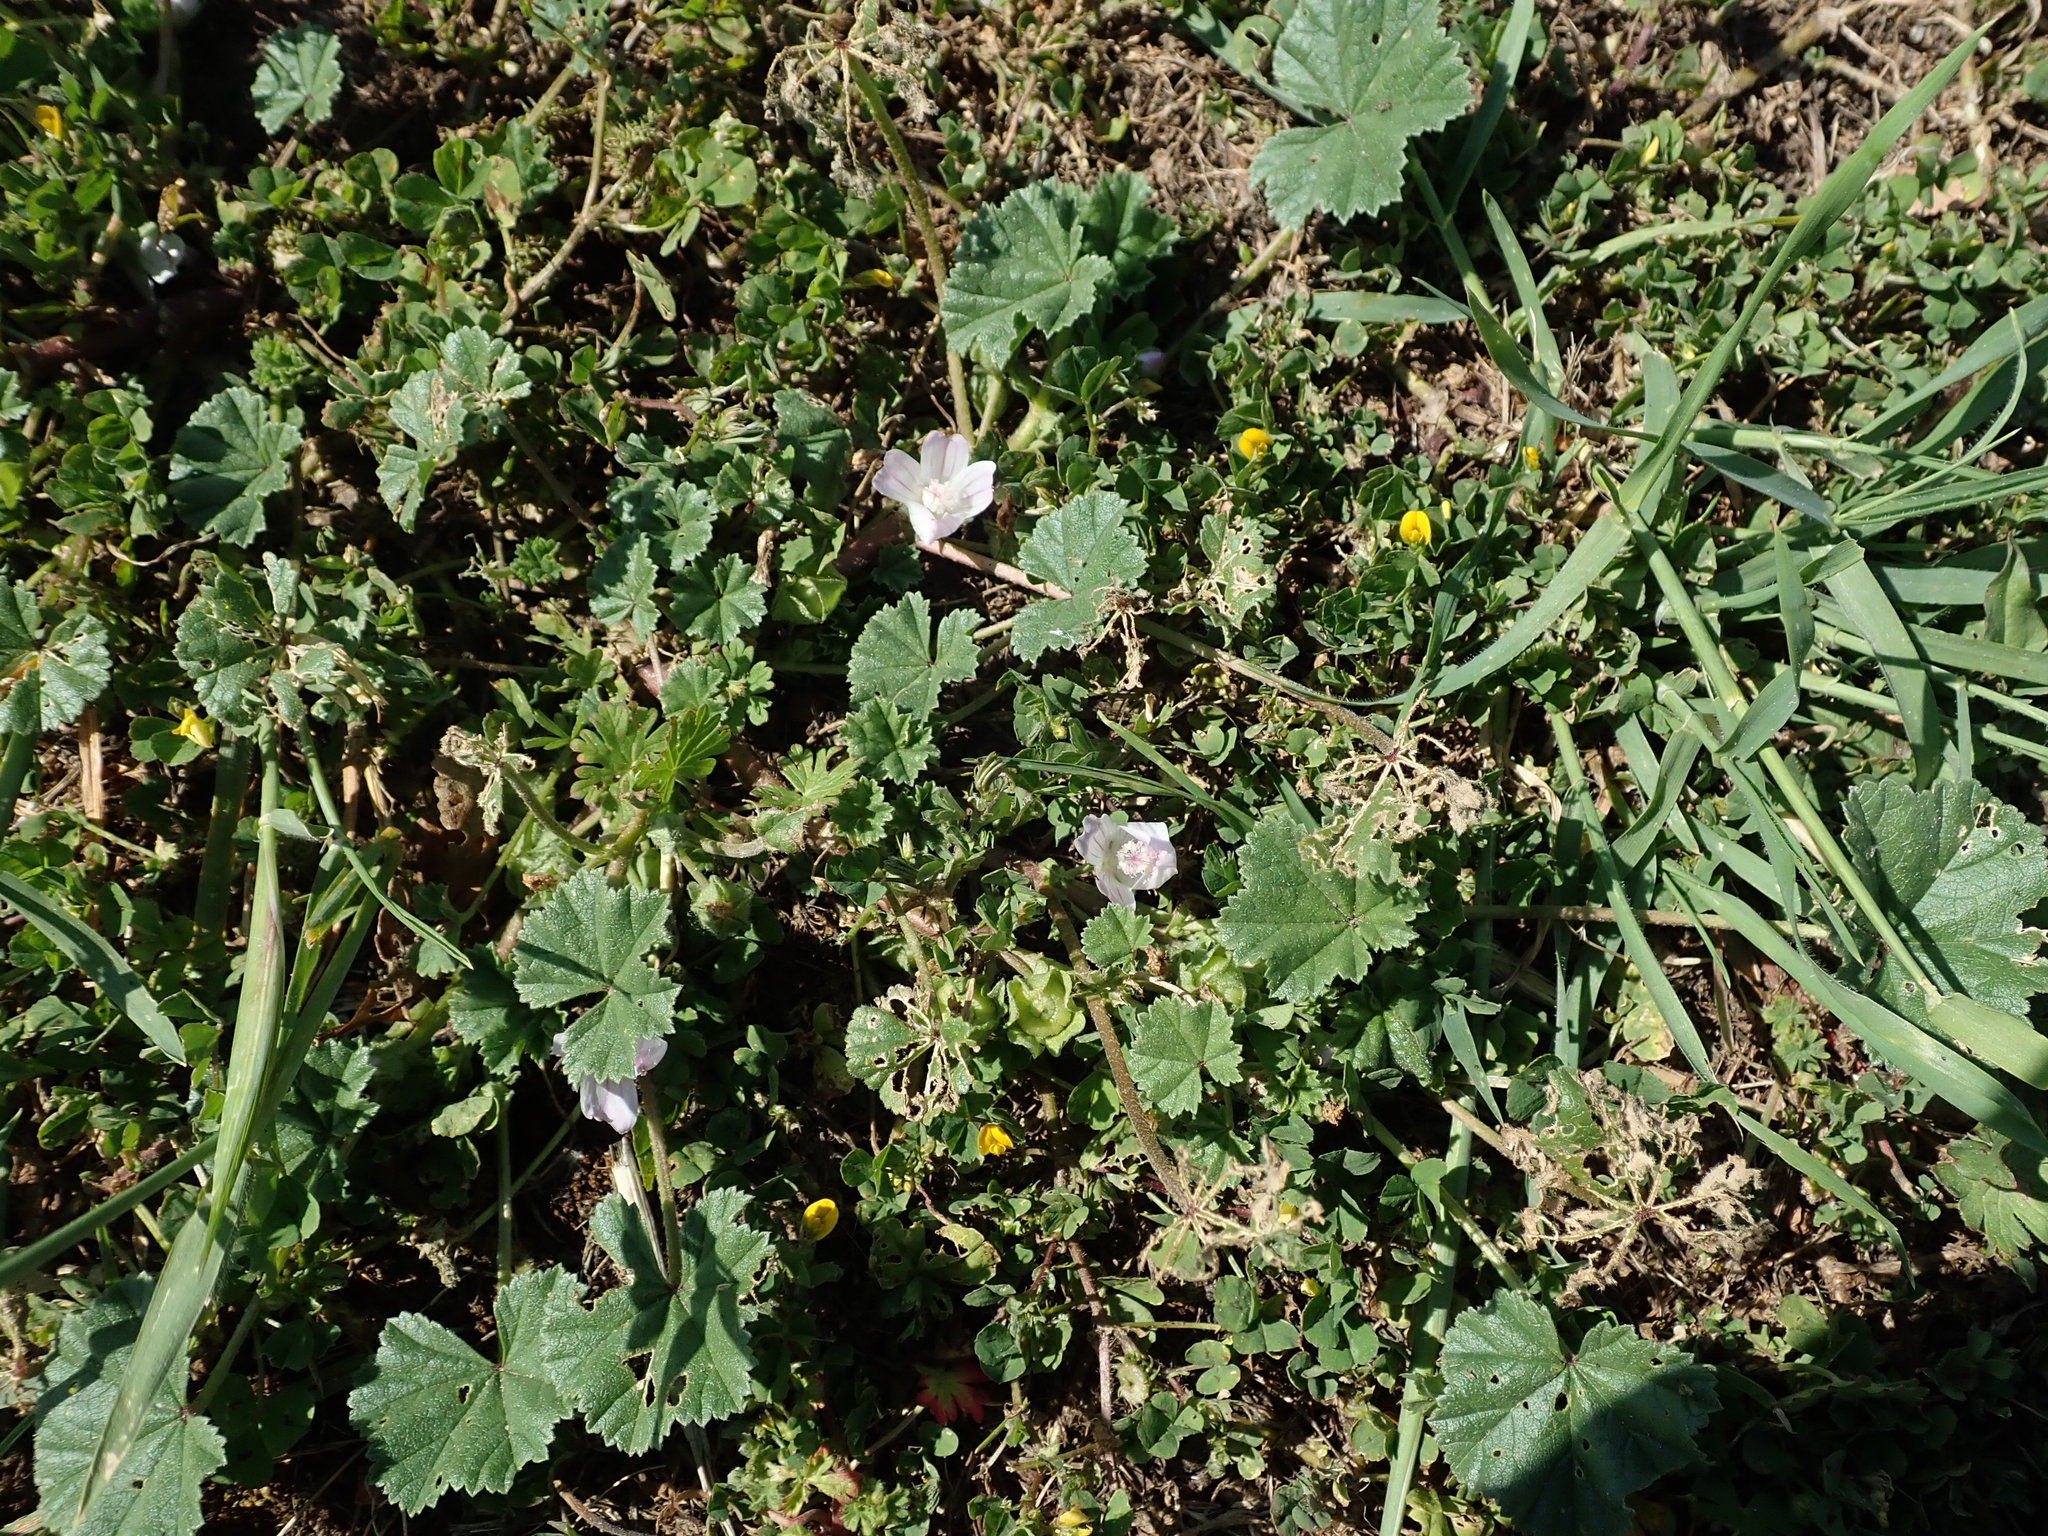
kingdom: Plantae
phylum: Tracheophyta
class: Magnoliopsida
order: Malvales
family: Malvaceae
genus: Malva
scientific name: Malva neglecta
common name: Common mallow
